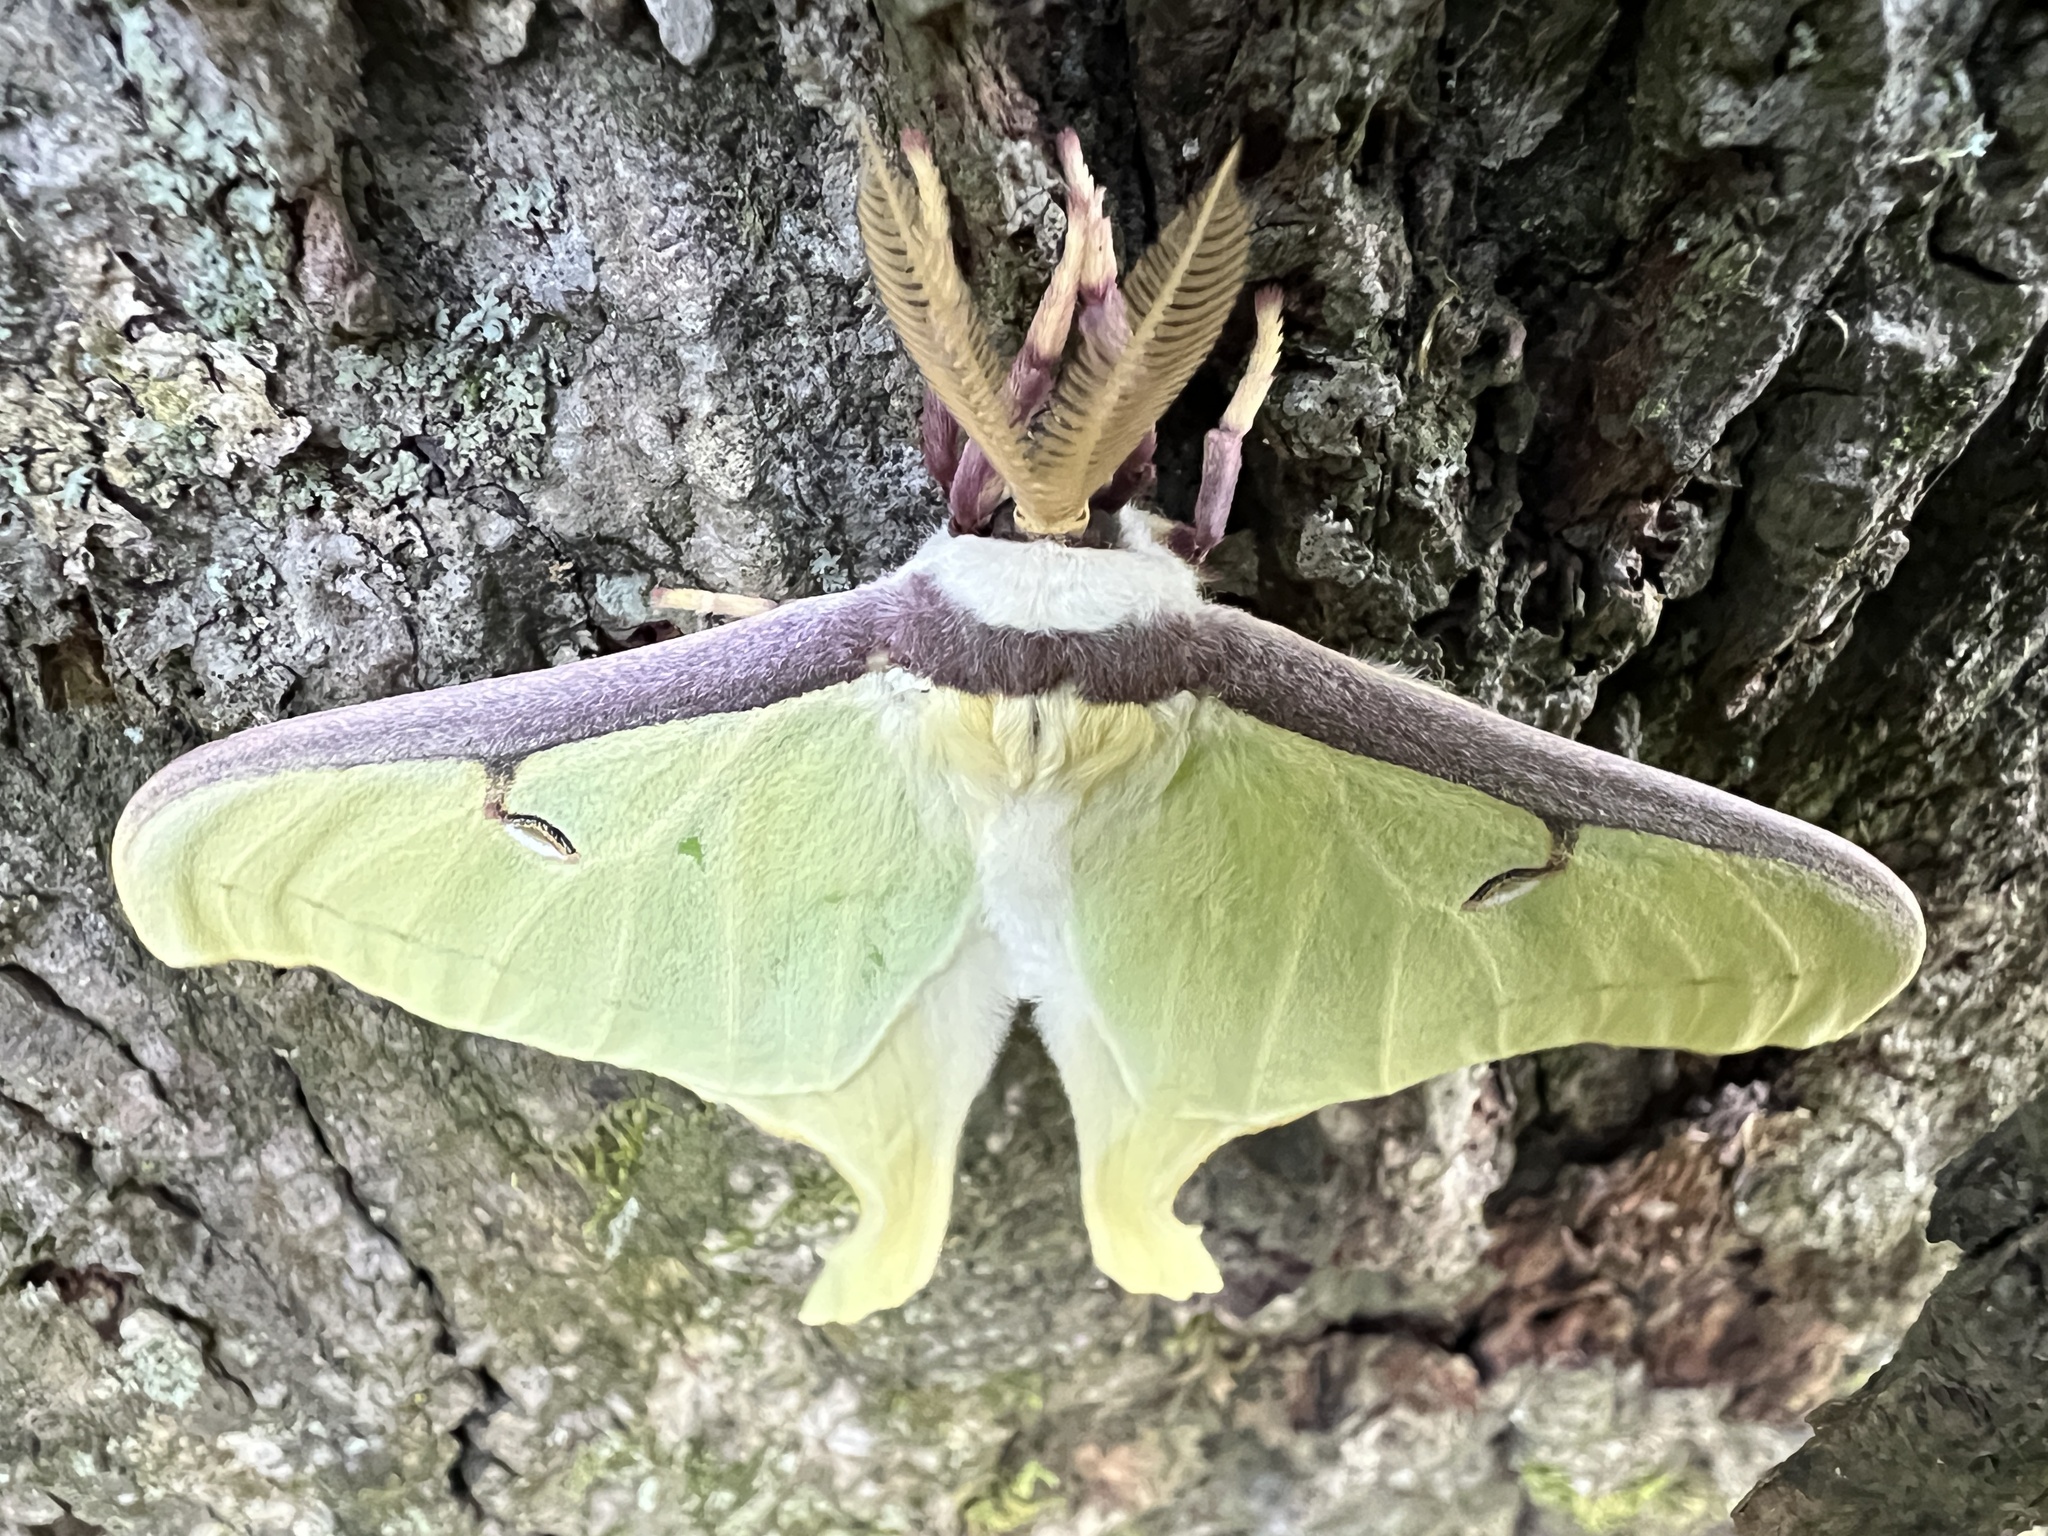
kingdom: Animalia
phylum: Arthropoda
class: Insecta
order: Lepidoptera
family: Saturniidae
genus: Actias
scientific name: Actias luna
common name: Luna moth
